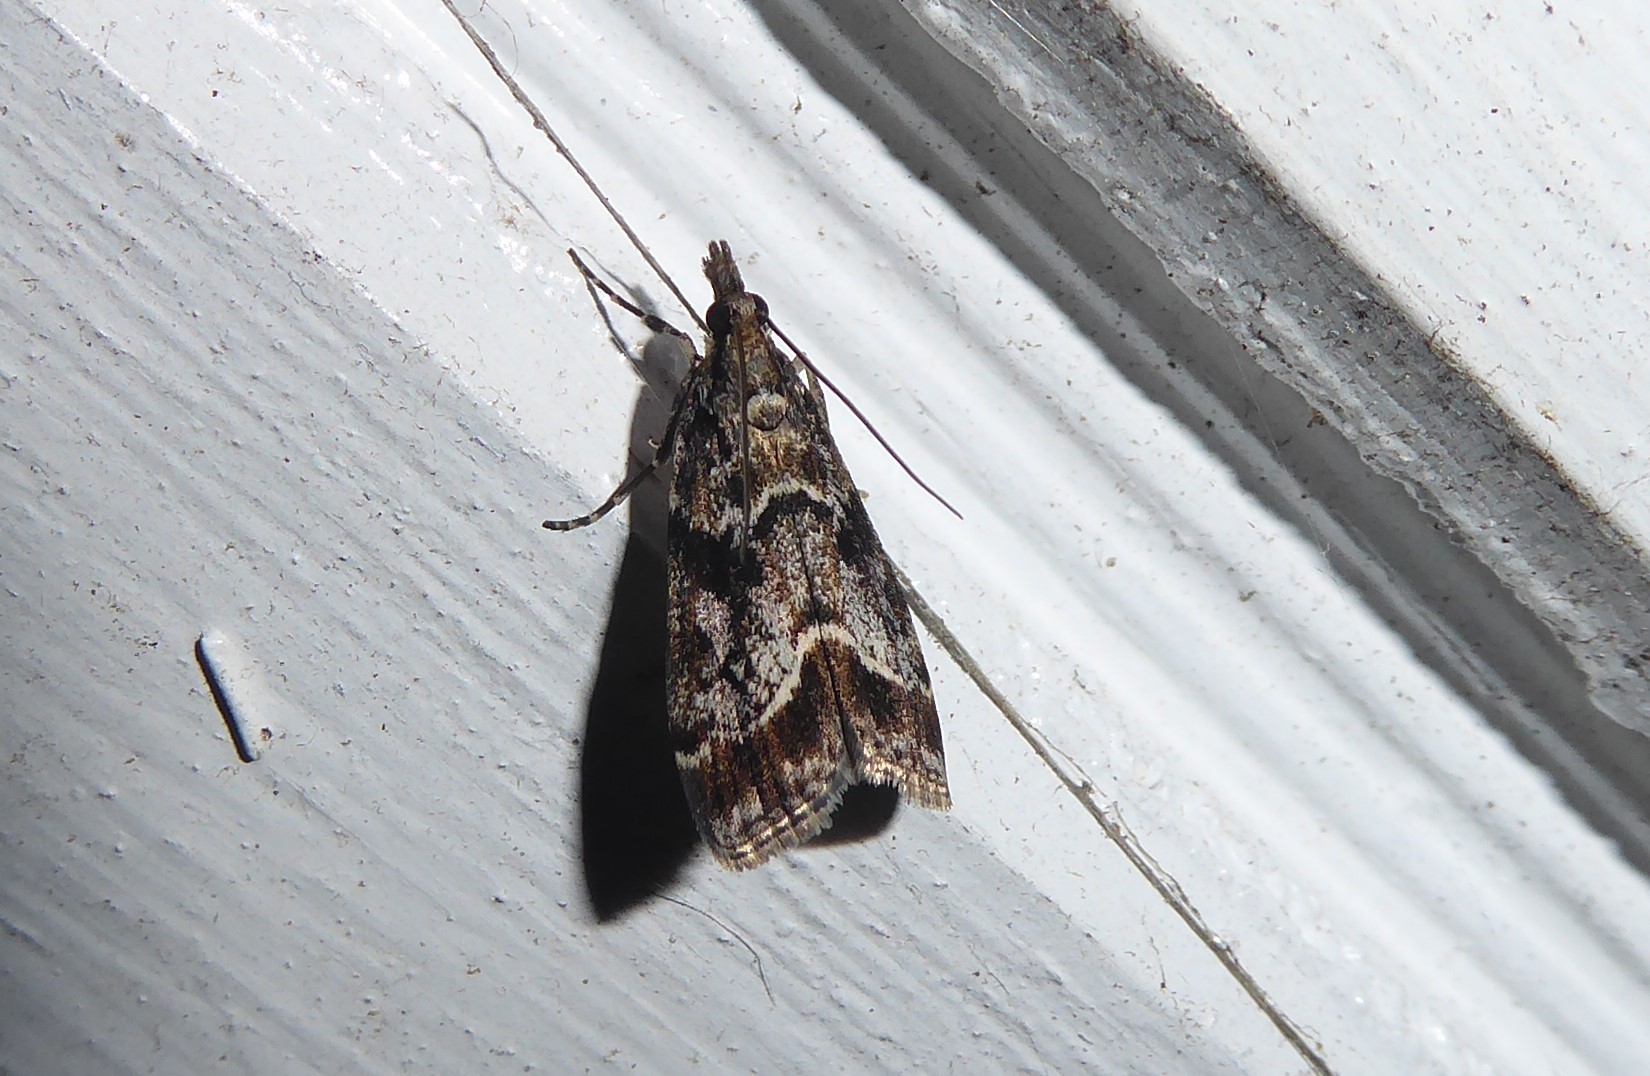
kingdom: Animalia
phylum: Arthropoda
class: Insecta
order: Lepidoptera
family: Crambidae
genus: Eudonia
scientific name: Eudonia legnota
